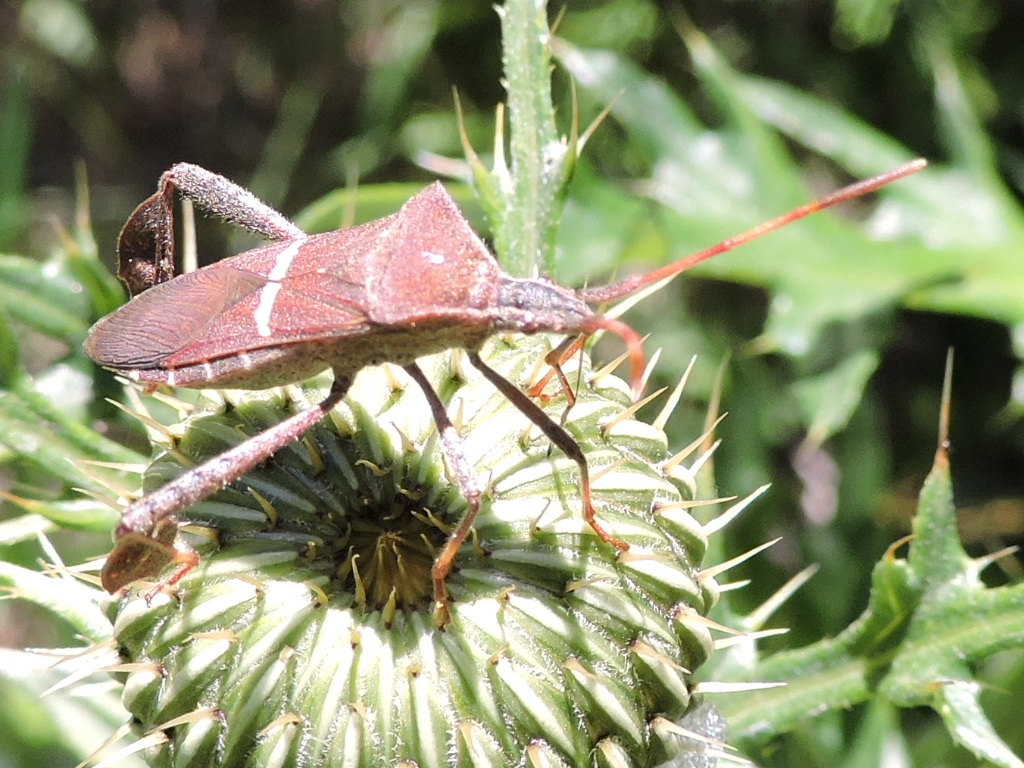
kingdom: Animalia
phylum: Arthropoda
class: Insecta
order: Hemiptera
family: Coreidae
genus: Leptoglossus
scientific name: Leptoglossus phyllopus
